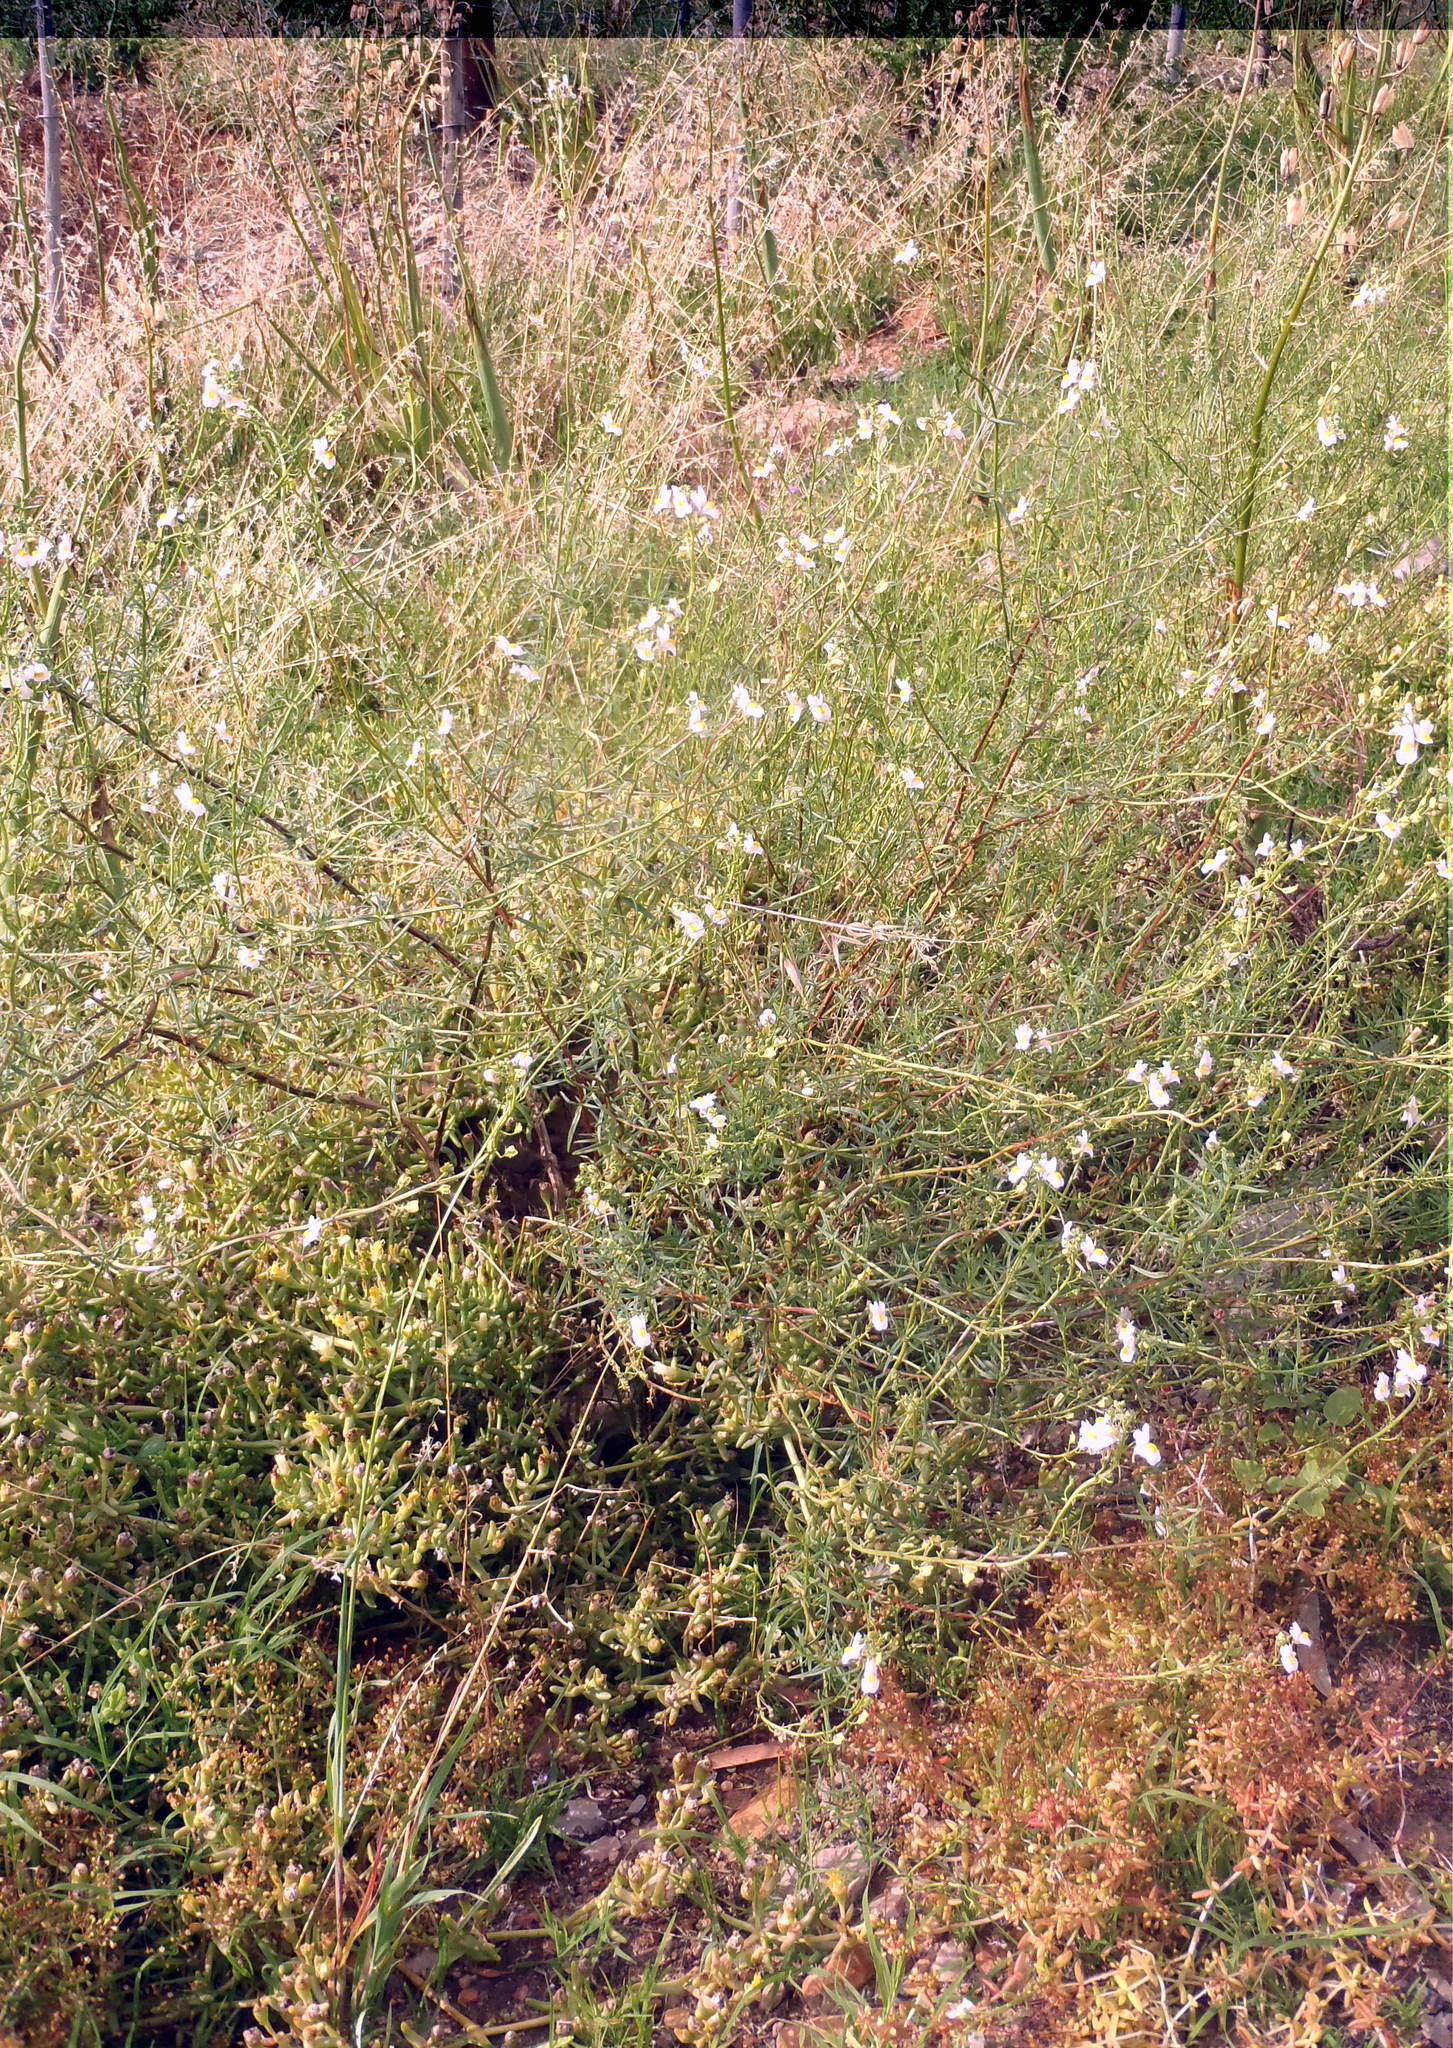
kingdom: Plantae
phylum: Tracheophyta
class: Magnoliopsida
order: Lamiales
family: Scrophulariaceae
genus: Nemesia
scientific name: Nemesia fruticans
